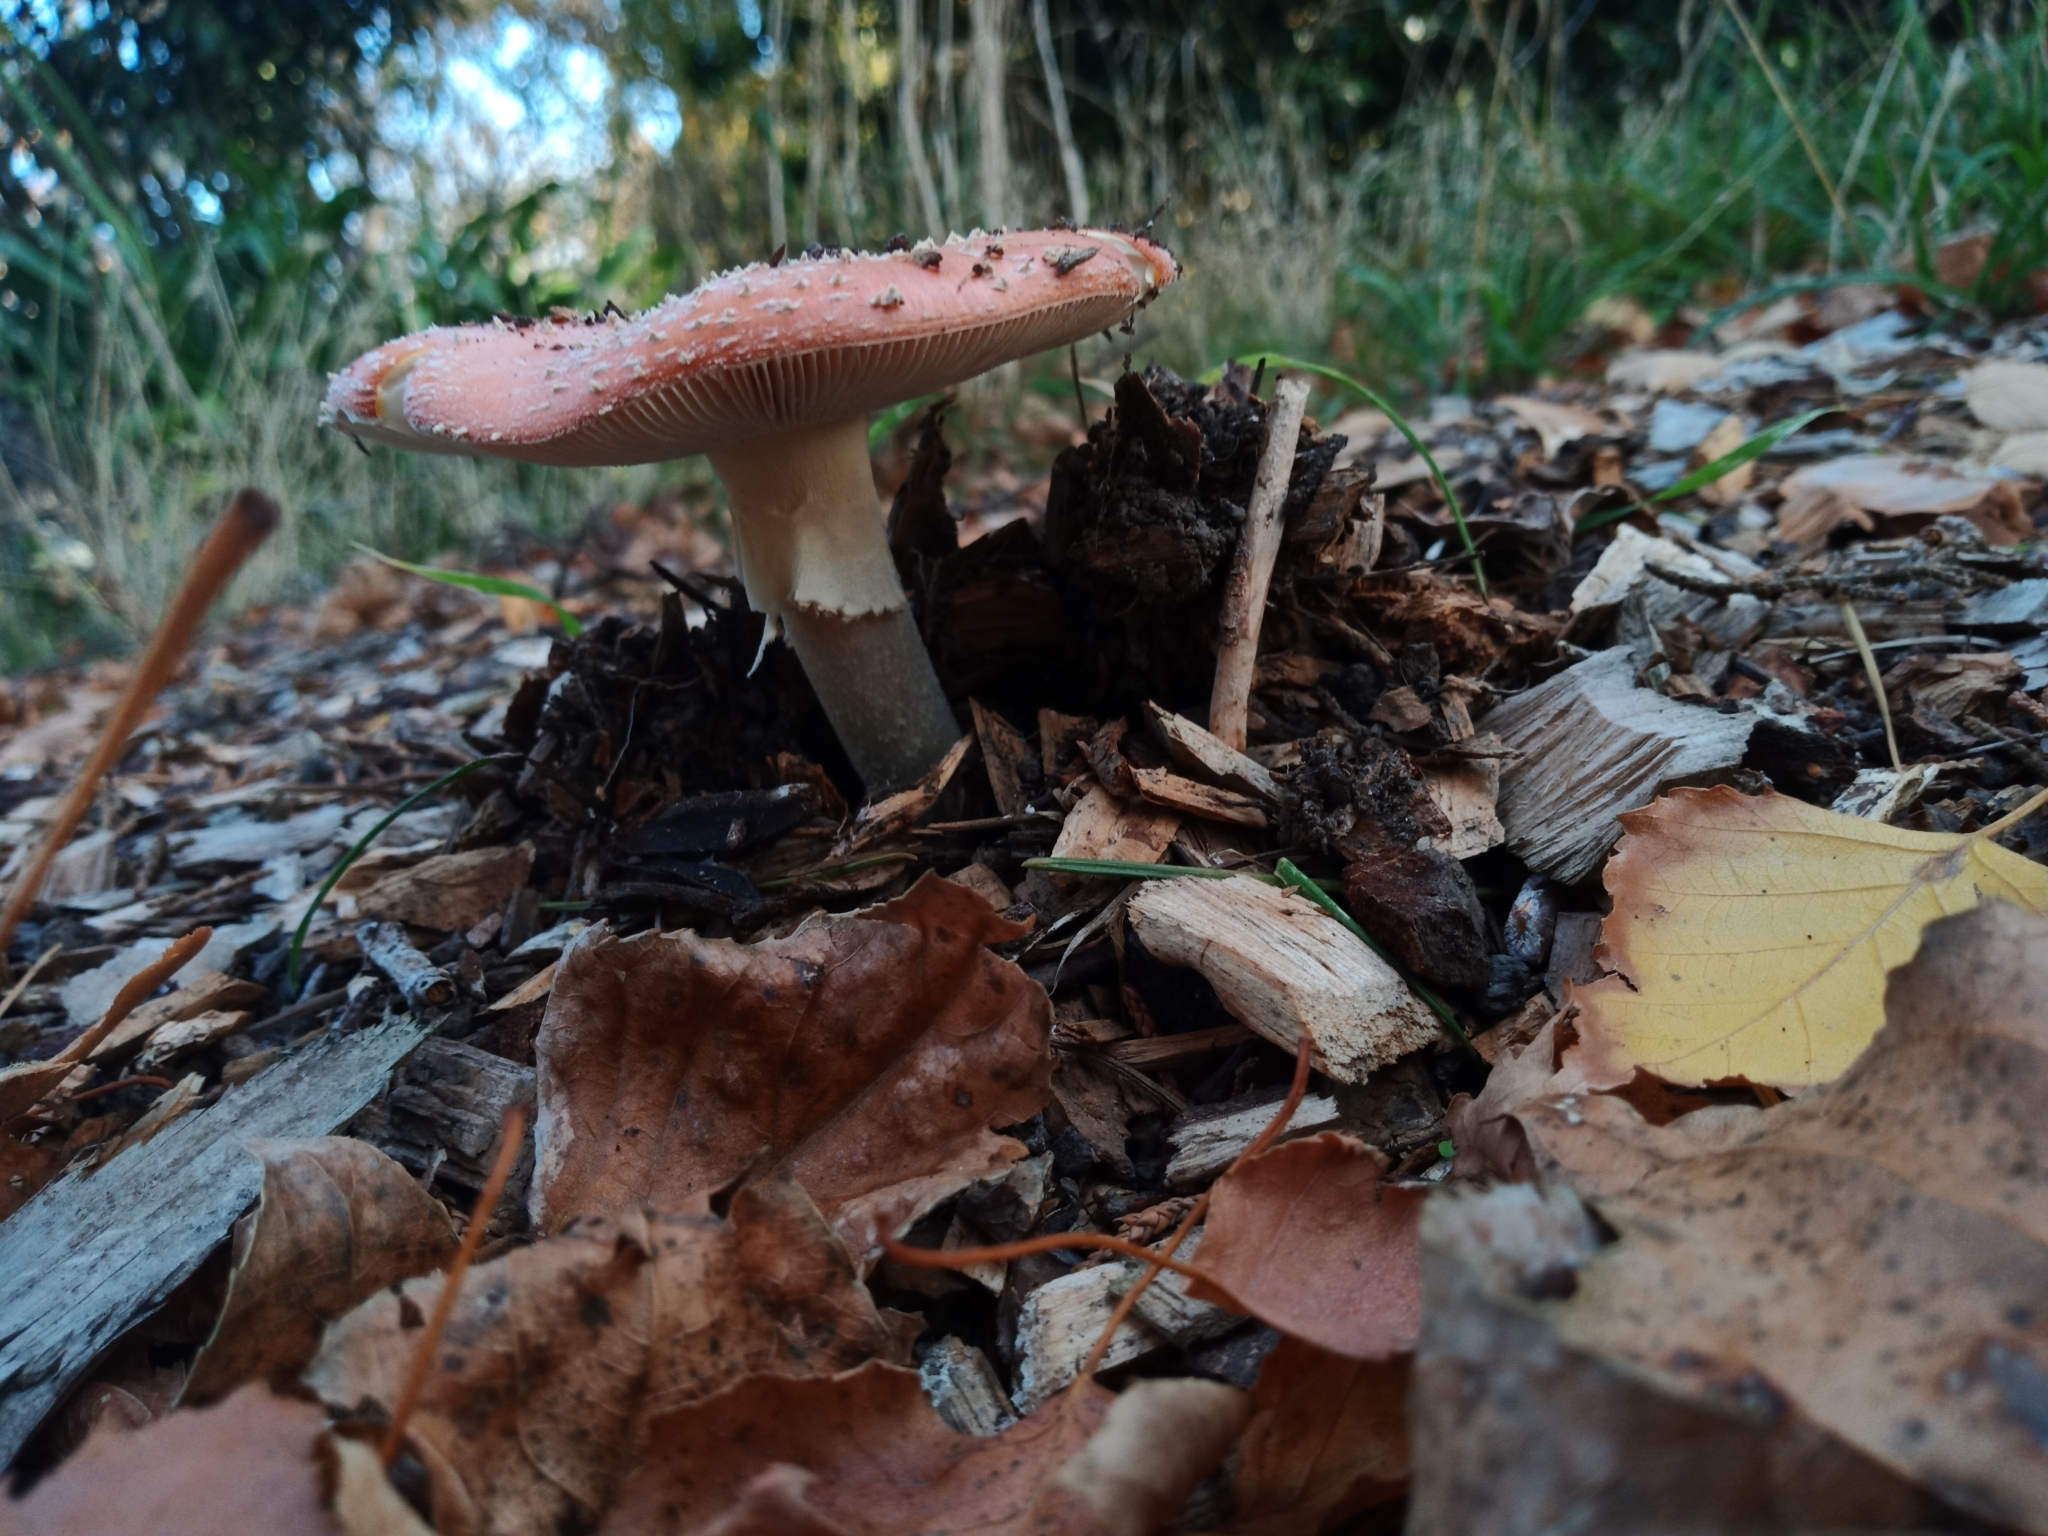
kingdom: Fungi
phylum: Basidiomycota
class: Agaricomycetes
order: Agaricales
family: Amanitaceae
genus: Amanita
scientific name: Amanita muscaria
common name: Fly agaric
